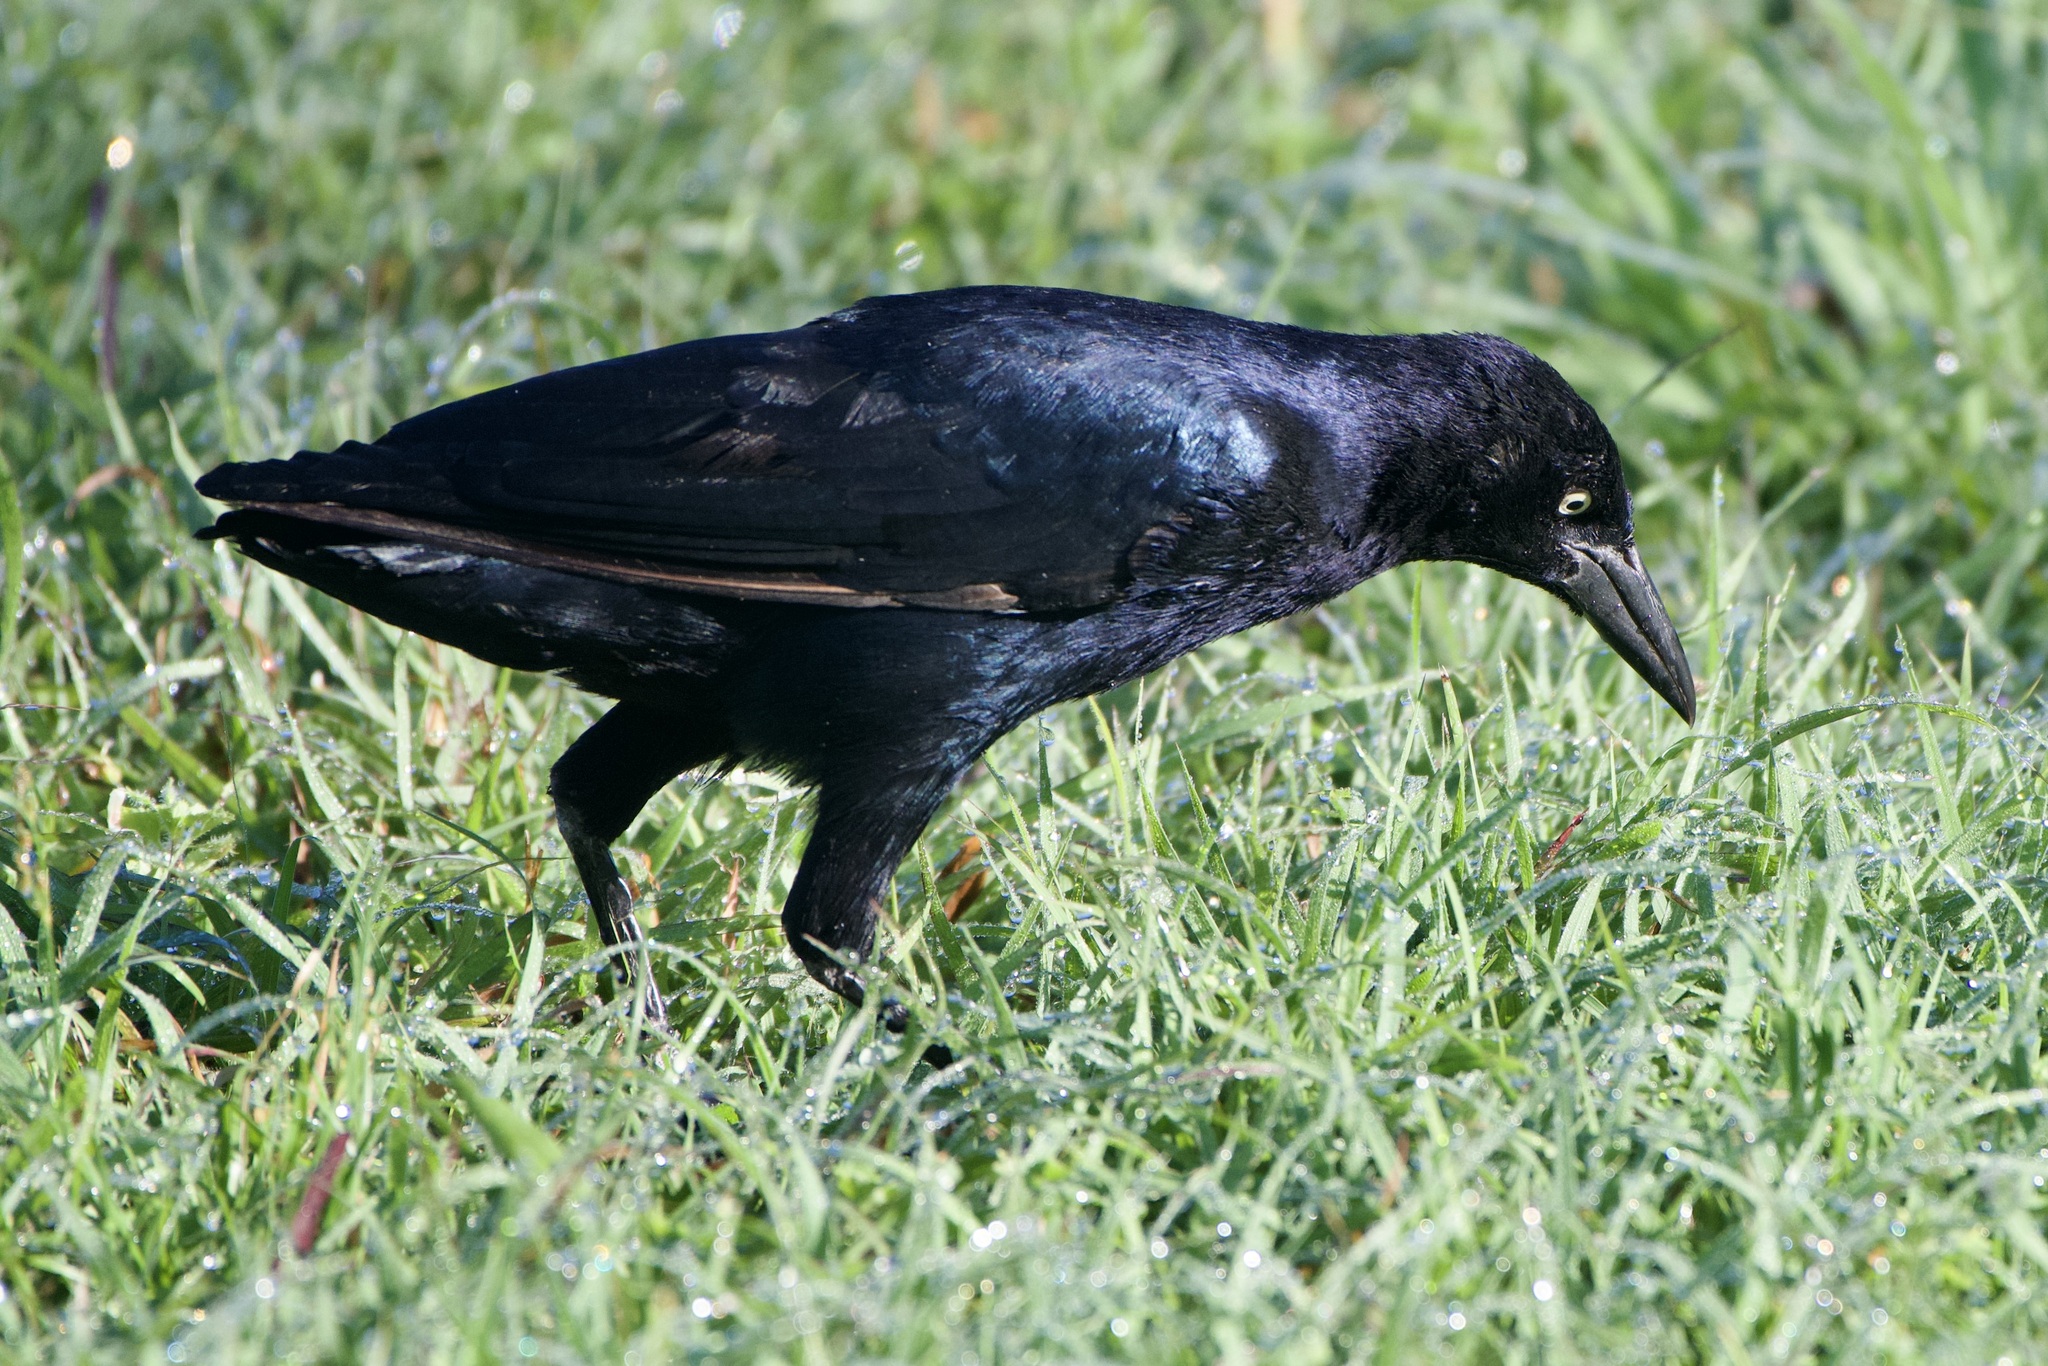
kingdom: Animalia
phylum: Chordata
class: Aves
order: Passeriformes
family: Icteridae
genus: Quiscalus
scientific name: Quiscalus mexicanus
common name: Great-tailed grackle
